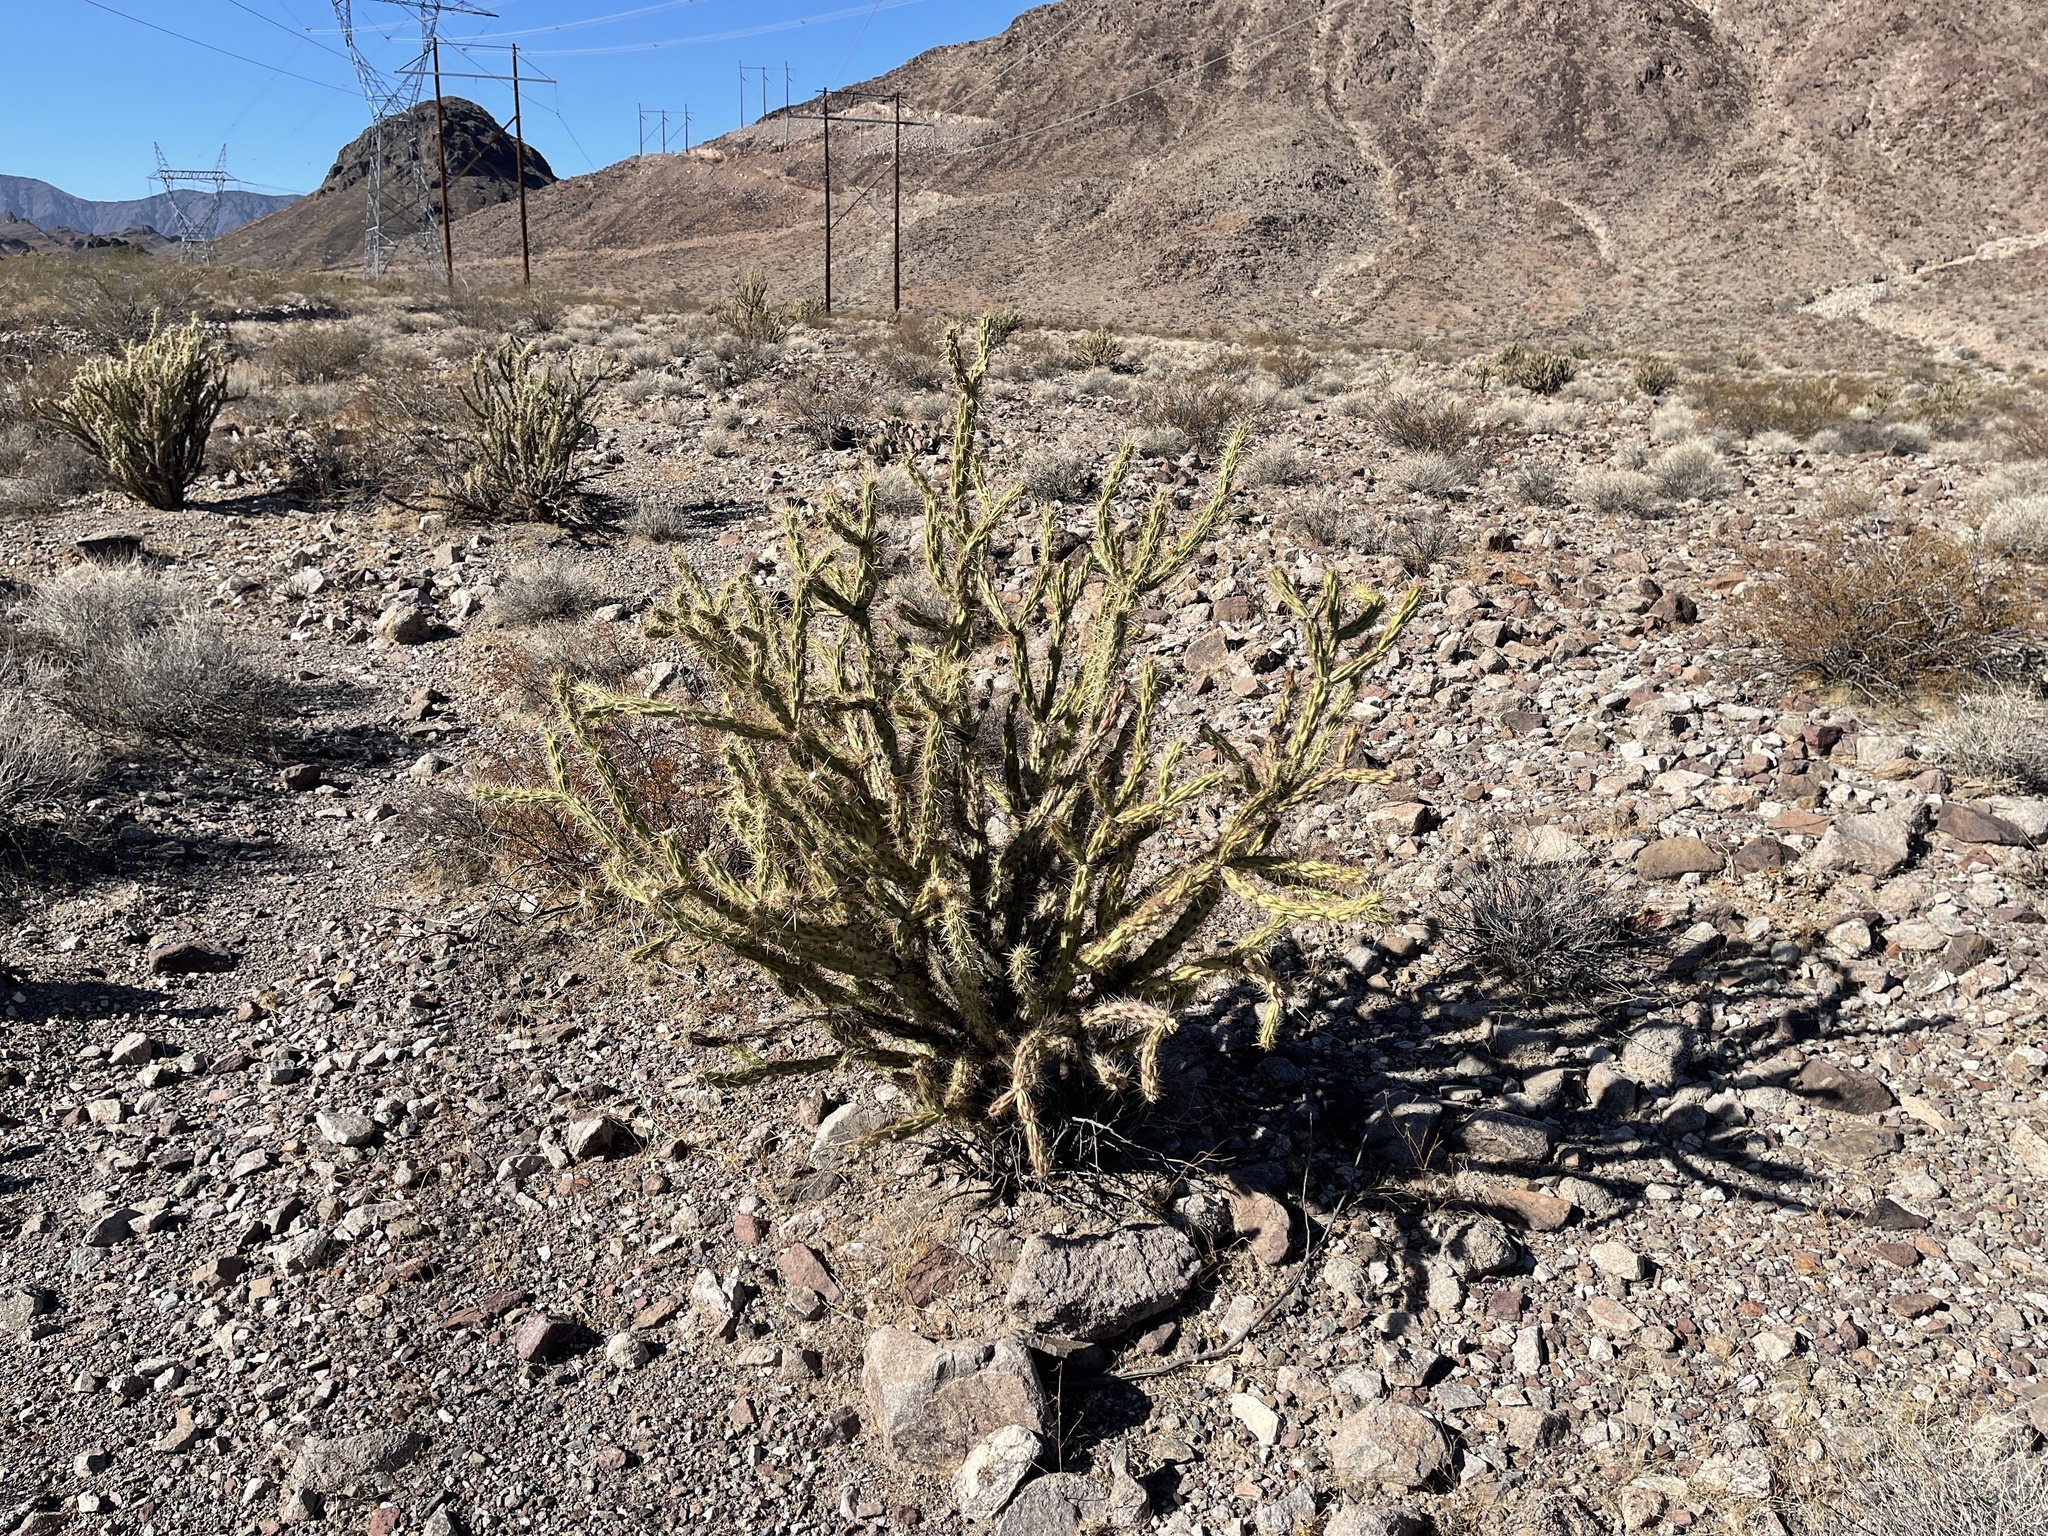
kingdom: Plantae
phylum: Tracheophyta
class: Magnoliopsida
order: Caryophyllales
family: Cactaceae
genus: Cylindropuntia
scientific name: Cylindropuntia acanthocarpa
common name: Buckhorn cholla
